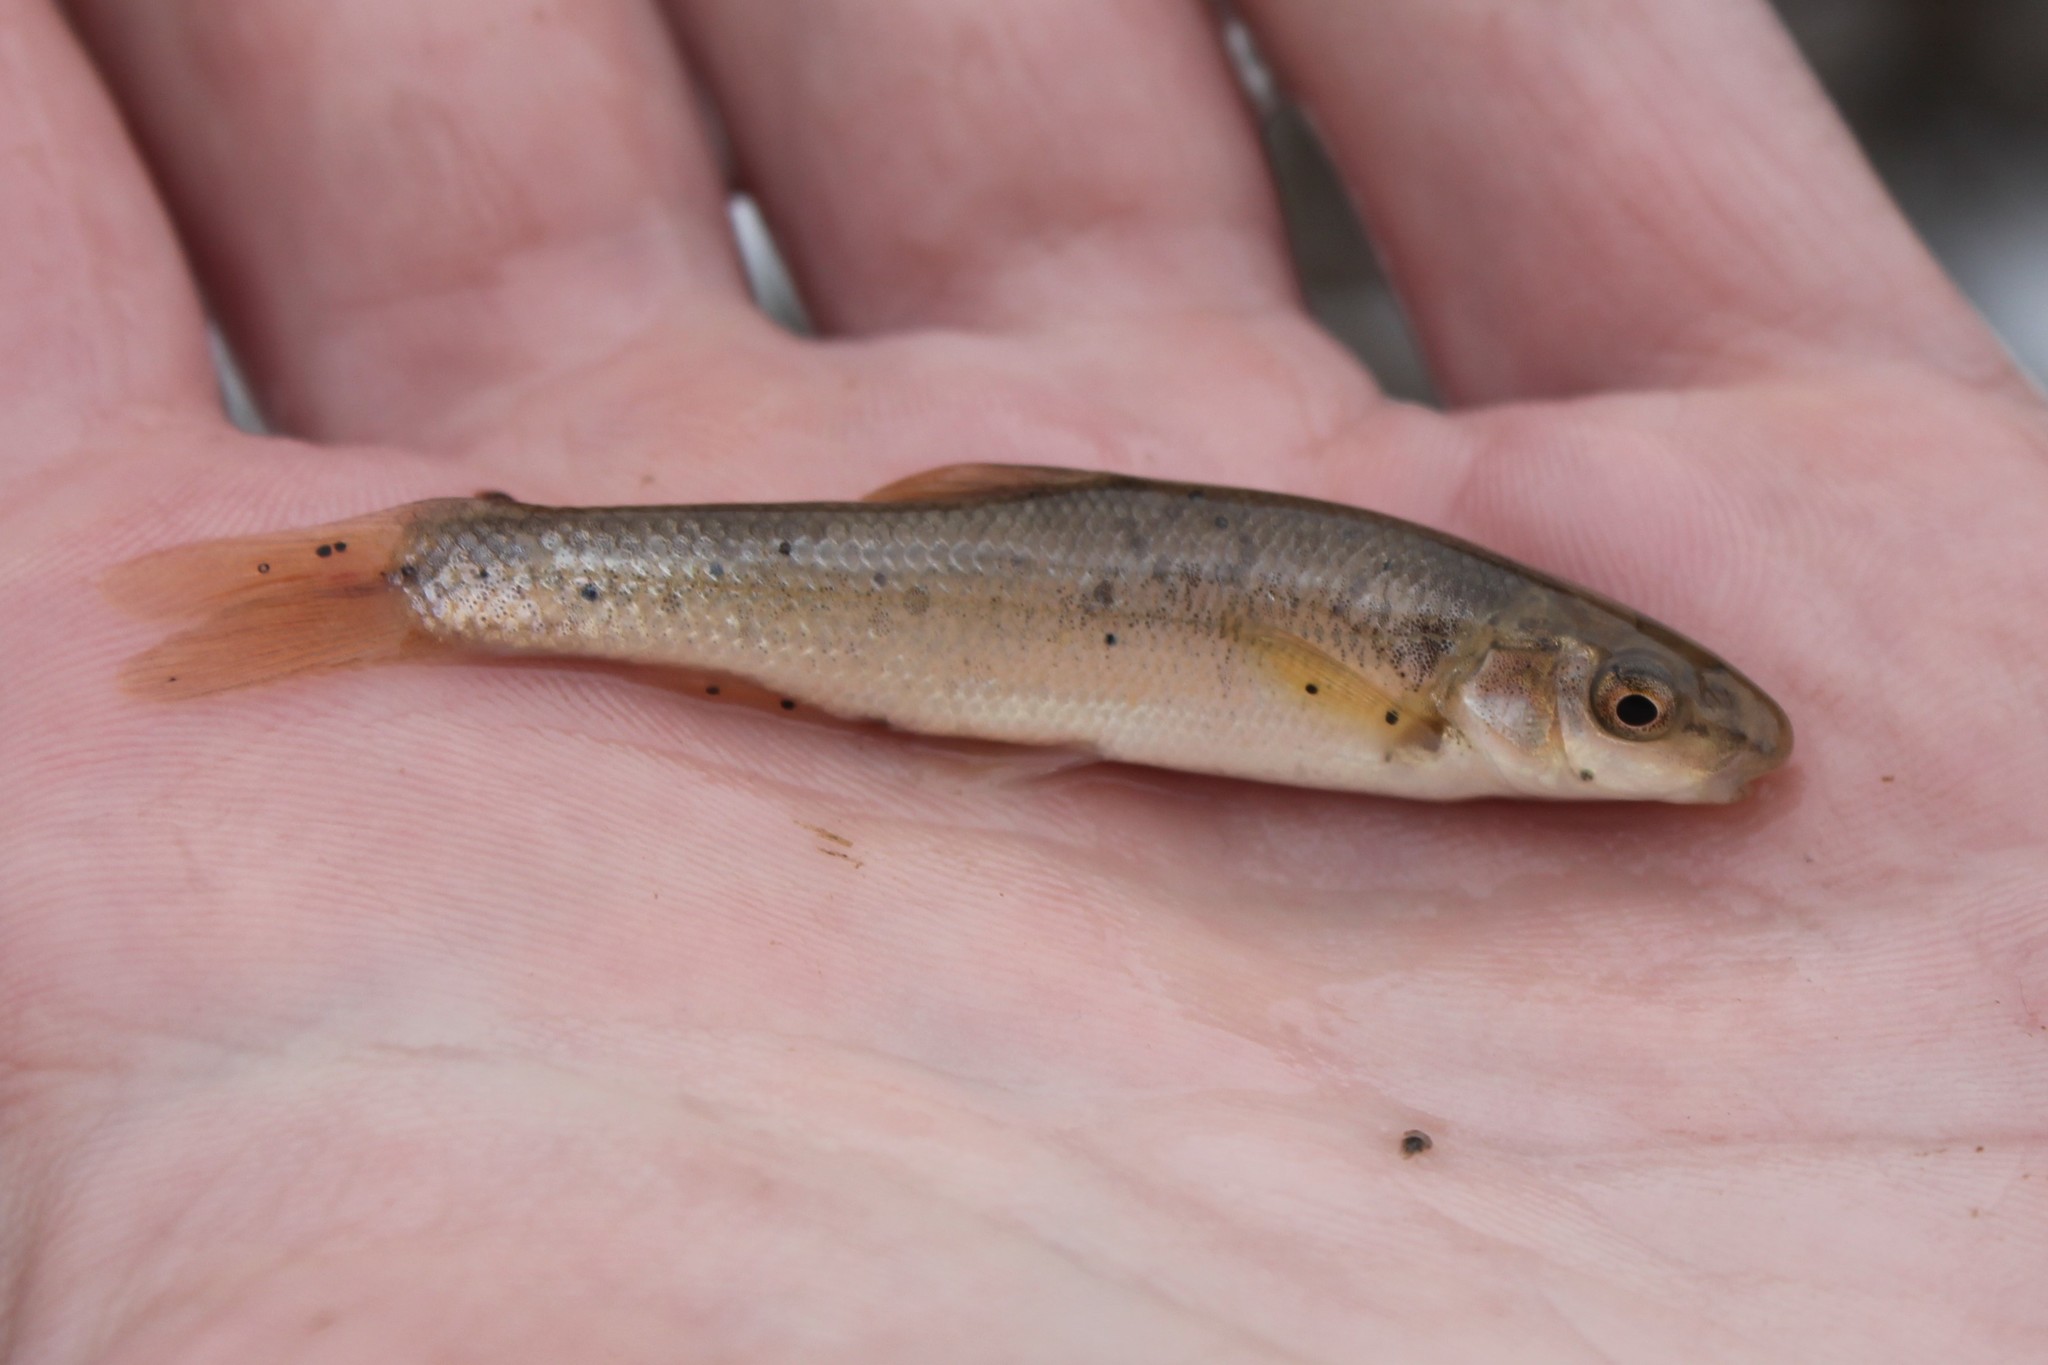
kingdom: Animalia
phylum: Chordata
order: Cypriniformes
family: Cyprinidae
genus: Campostoma
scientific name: Campostoma anomalum
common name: Central stoneroller
